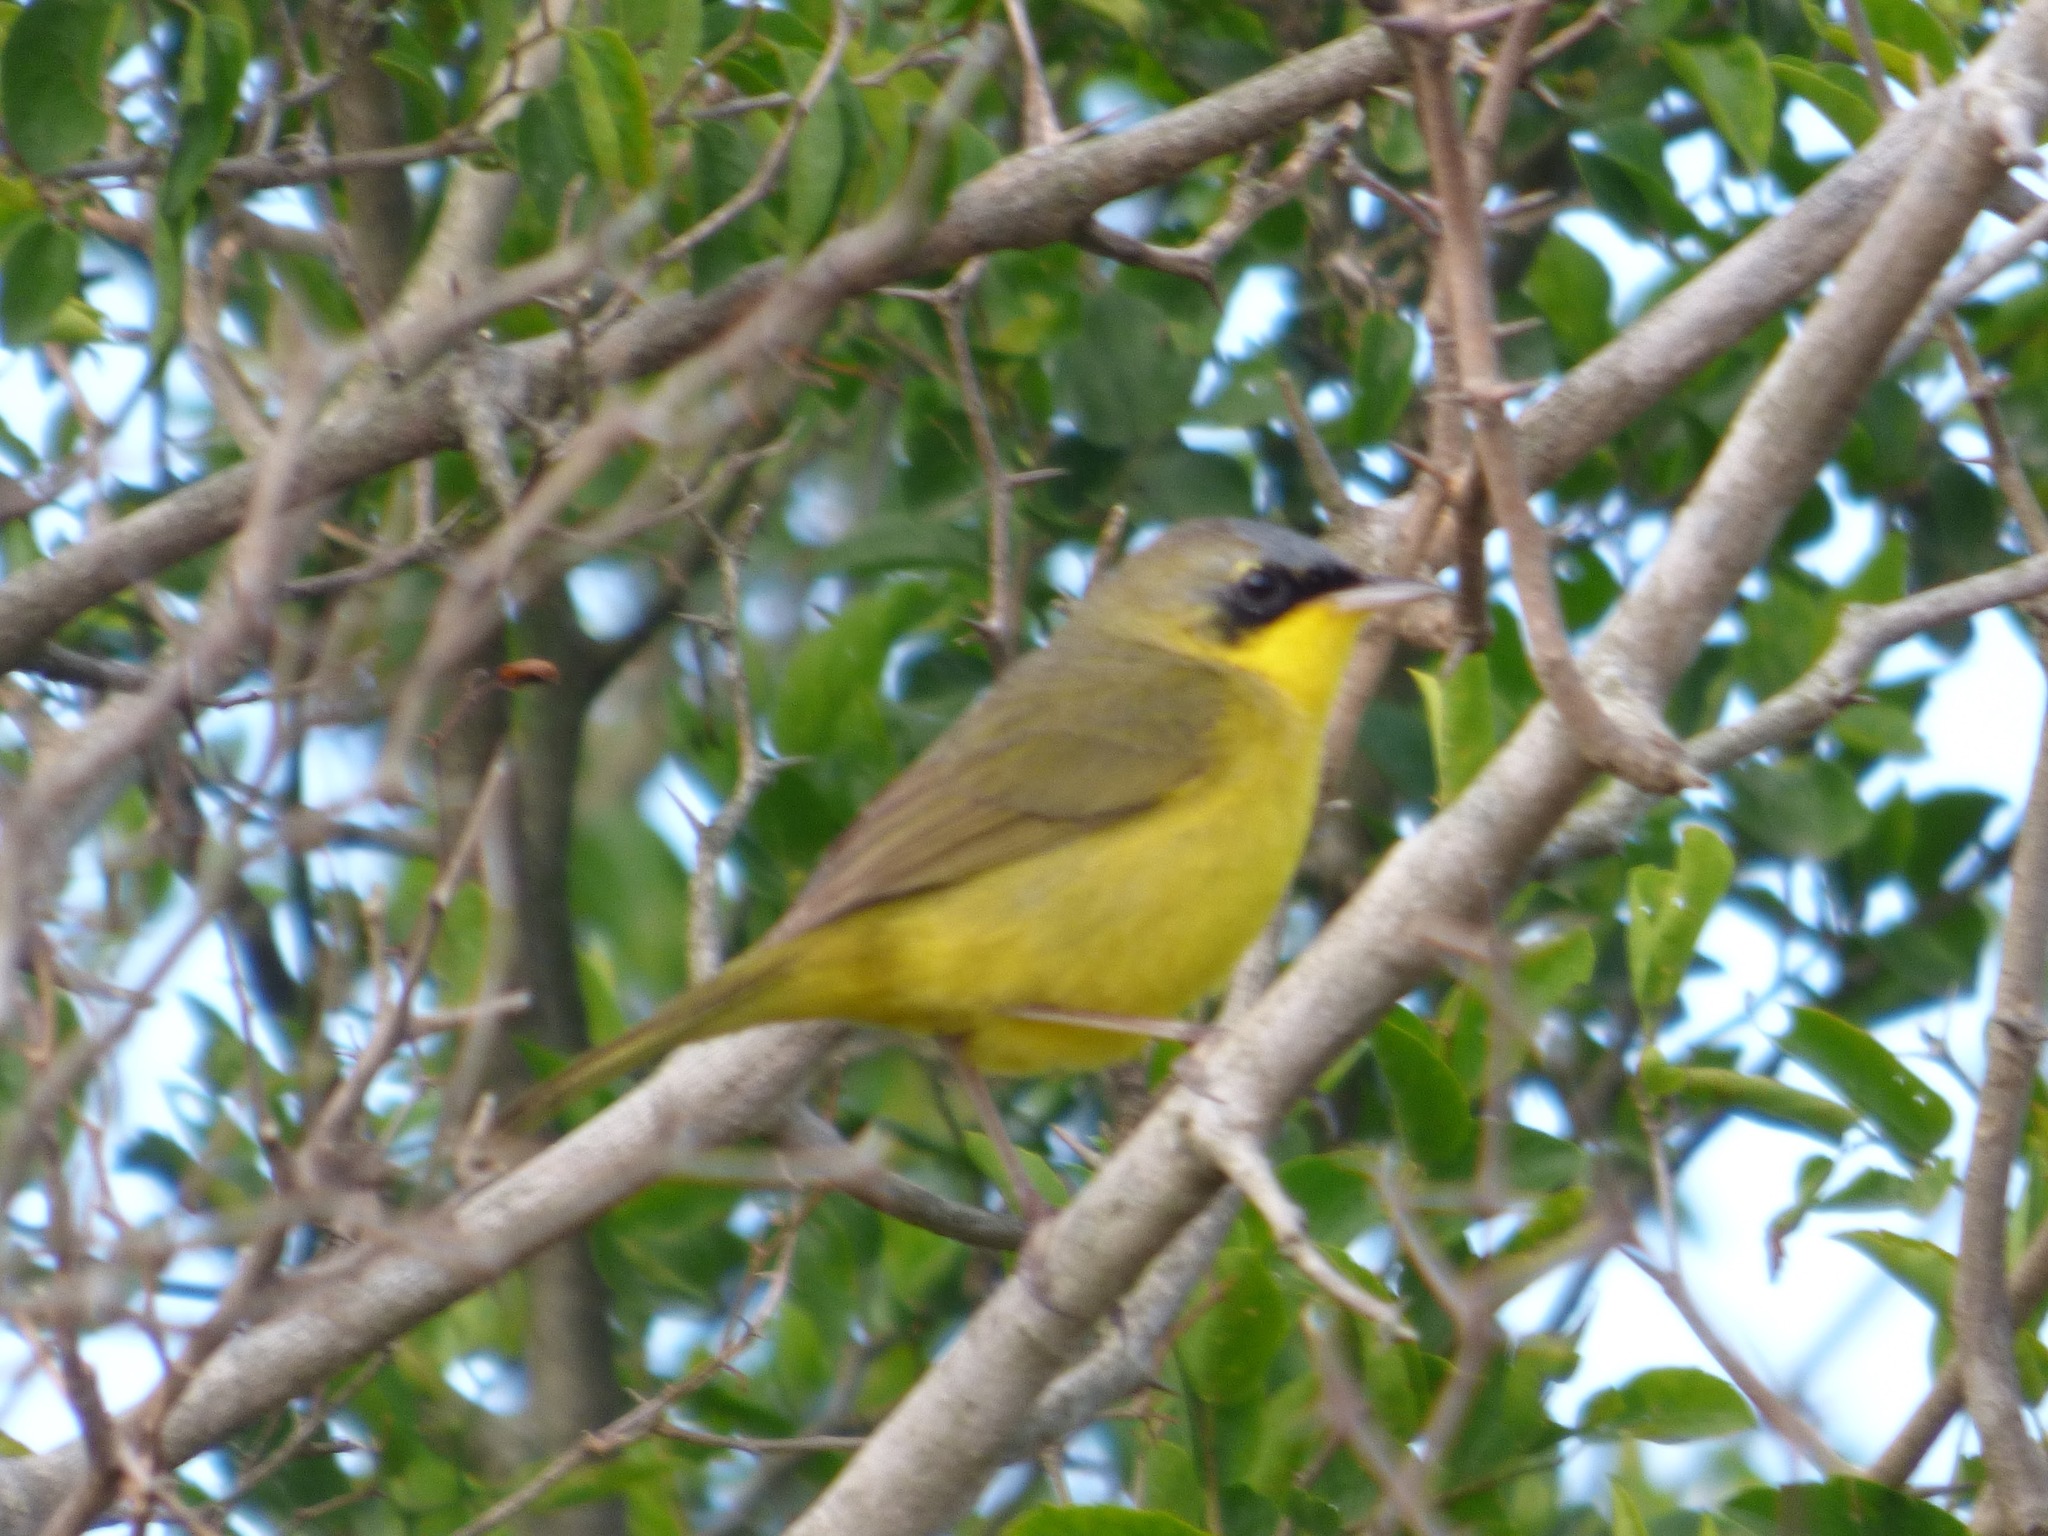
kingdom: Animalia
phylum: Chordata
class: Aves
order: Passeriformes
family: Parulidae
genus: Geothlypis
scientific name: Geothlypis velata
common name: Southern yellowthroat
